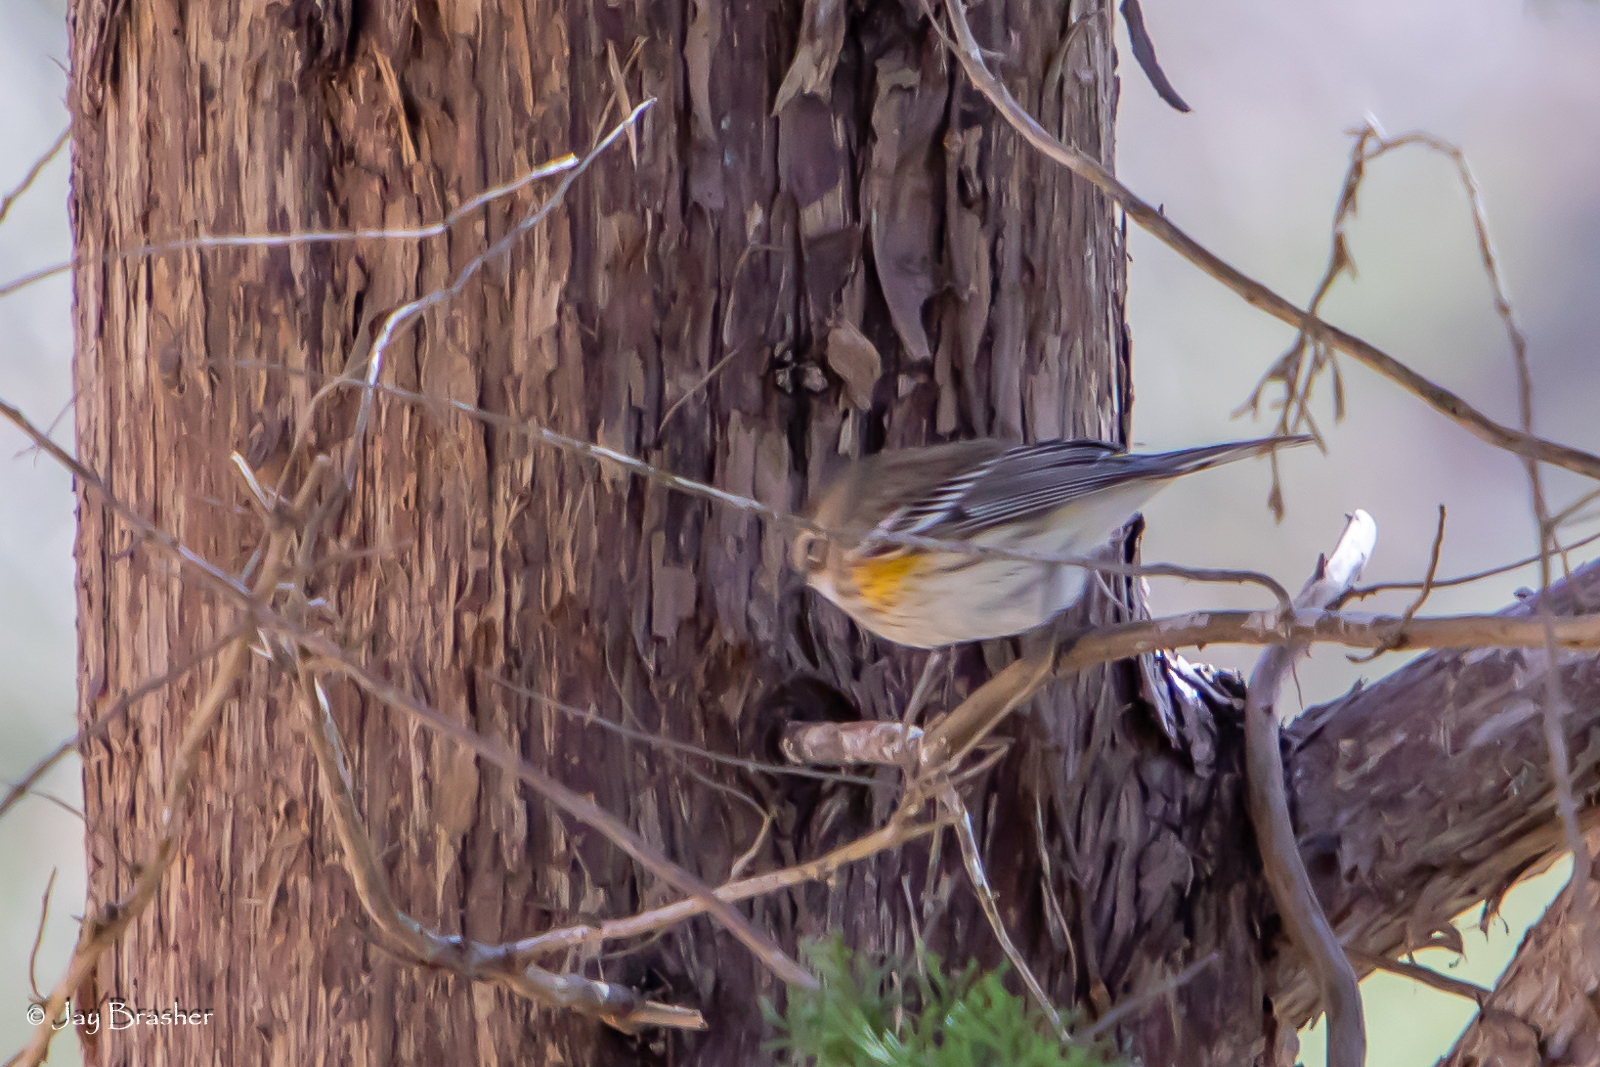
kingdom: Animalia
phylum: Chordata
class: Aves
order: Passeriformes
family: Parulidae
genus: Setophaga
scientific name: Setophaga coronata
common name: Myrtle warbler
